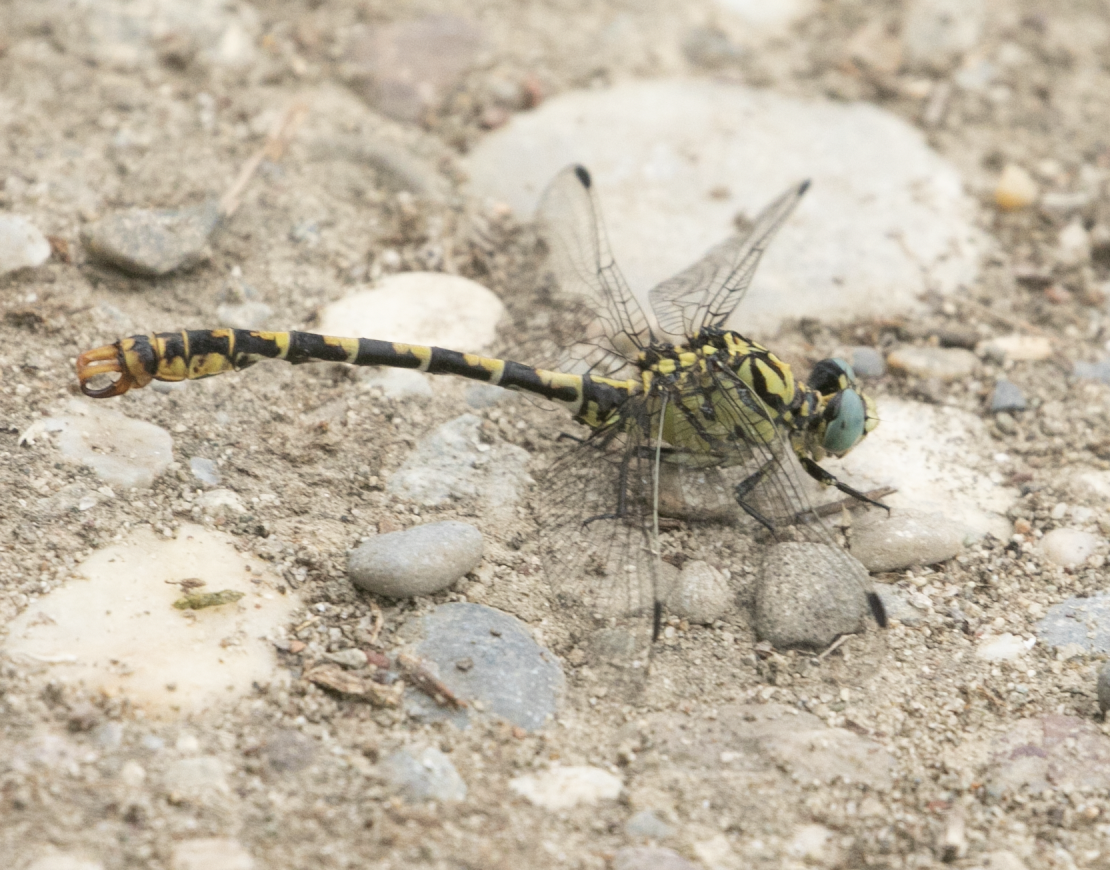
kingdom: Animalia
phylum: Arthropoda
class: Insecta
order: Odonata
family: Gomphidae
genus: Onychogomphus
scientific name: Onychogomphus forcipatus
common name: Small pincertail
